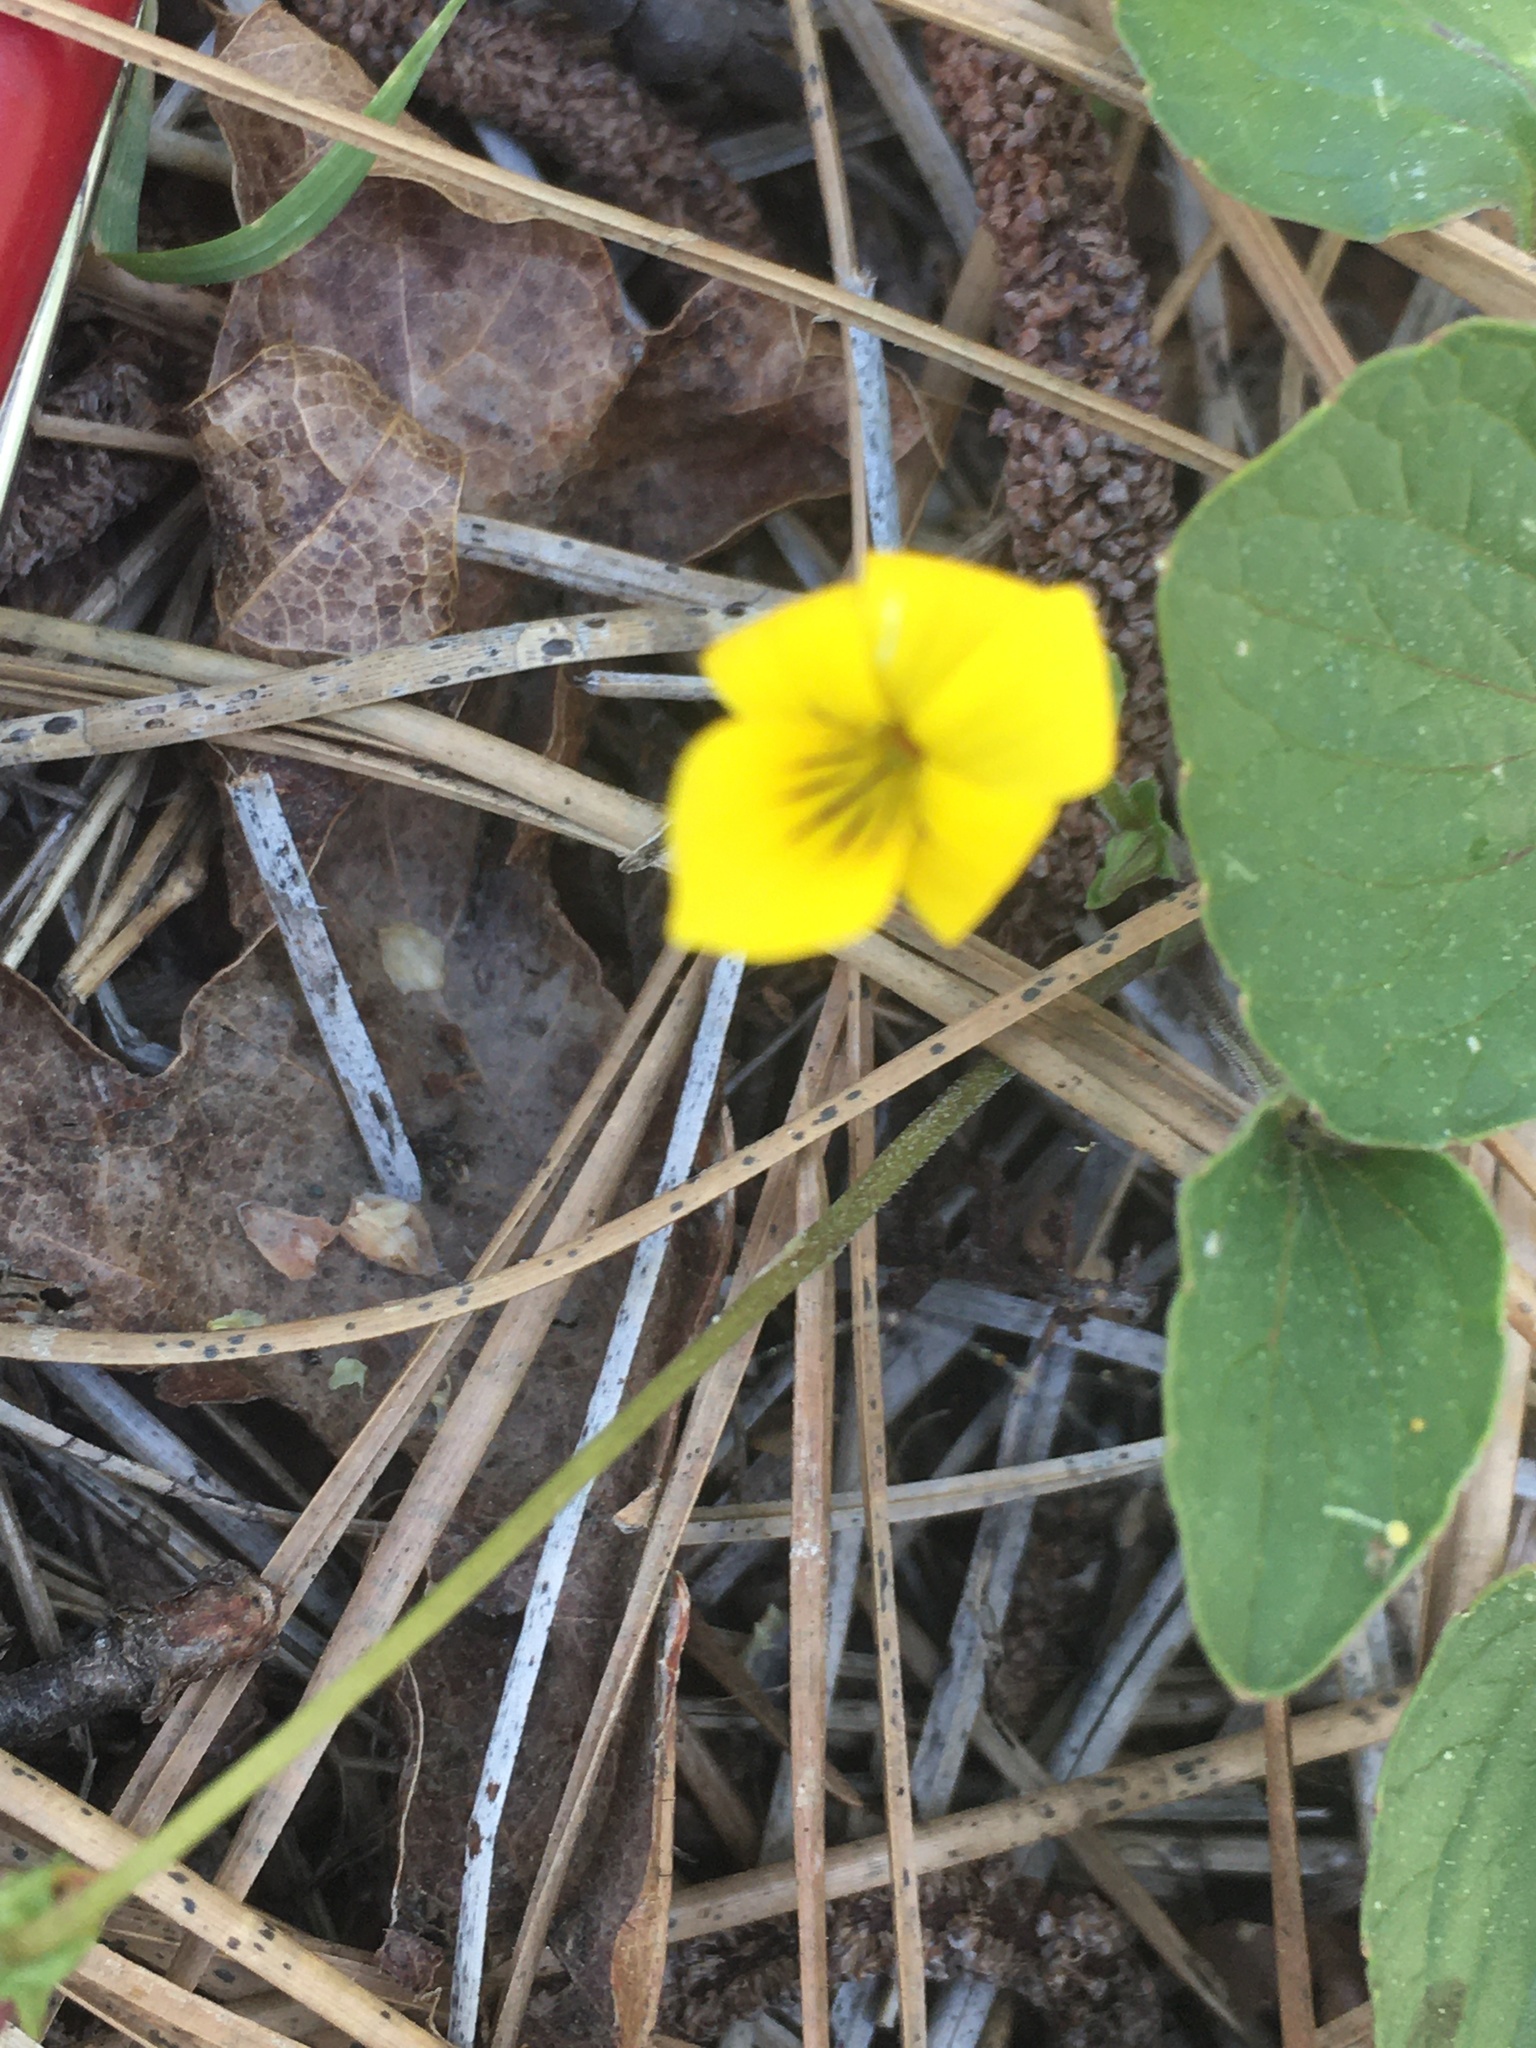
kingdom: Plantae
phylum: Tracheophyta
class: Magnoliopsida
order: Malpighiales
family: Violaceae
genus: Viola
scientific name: Viola purpurea
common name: Pine violet
